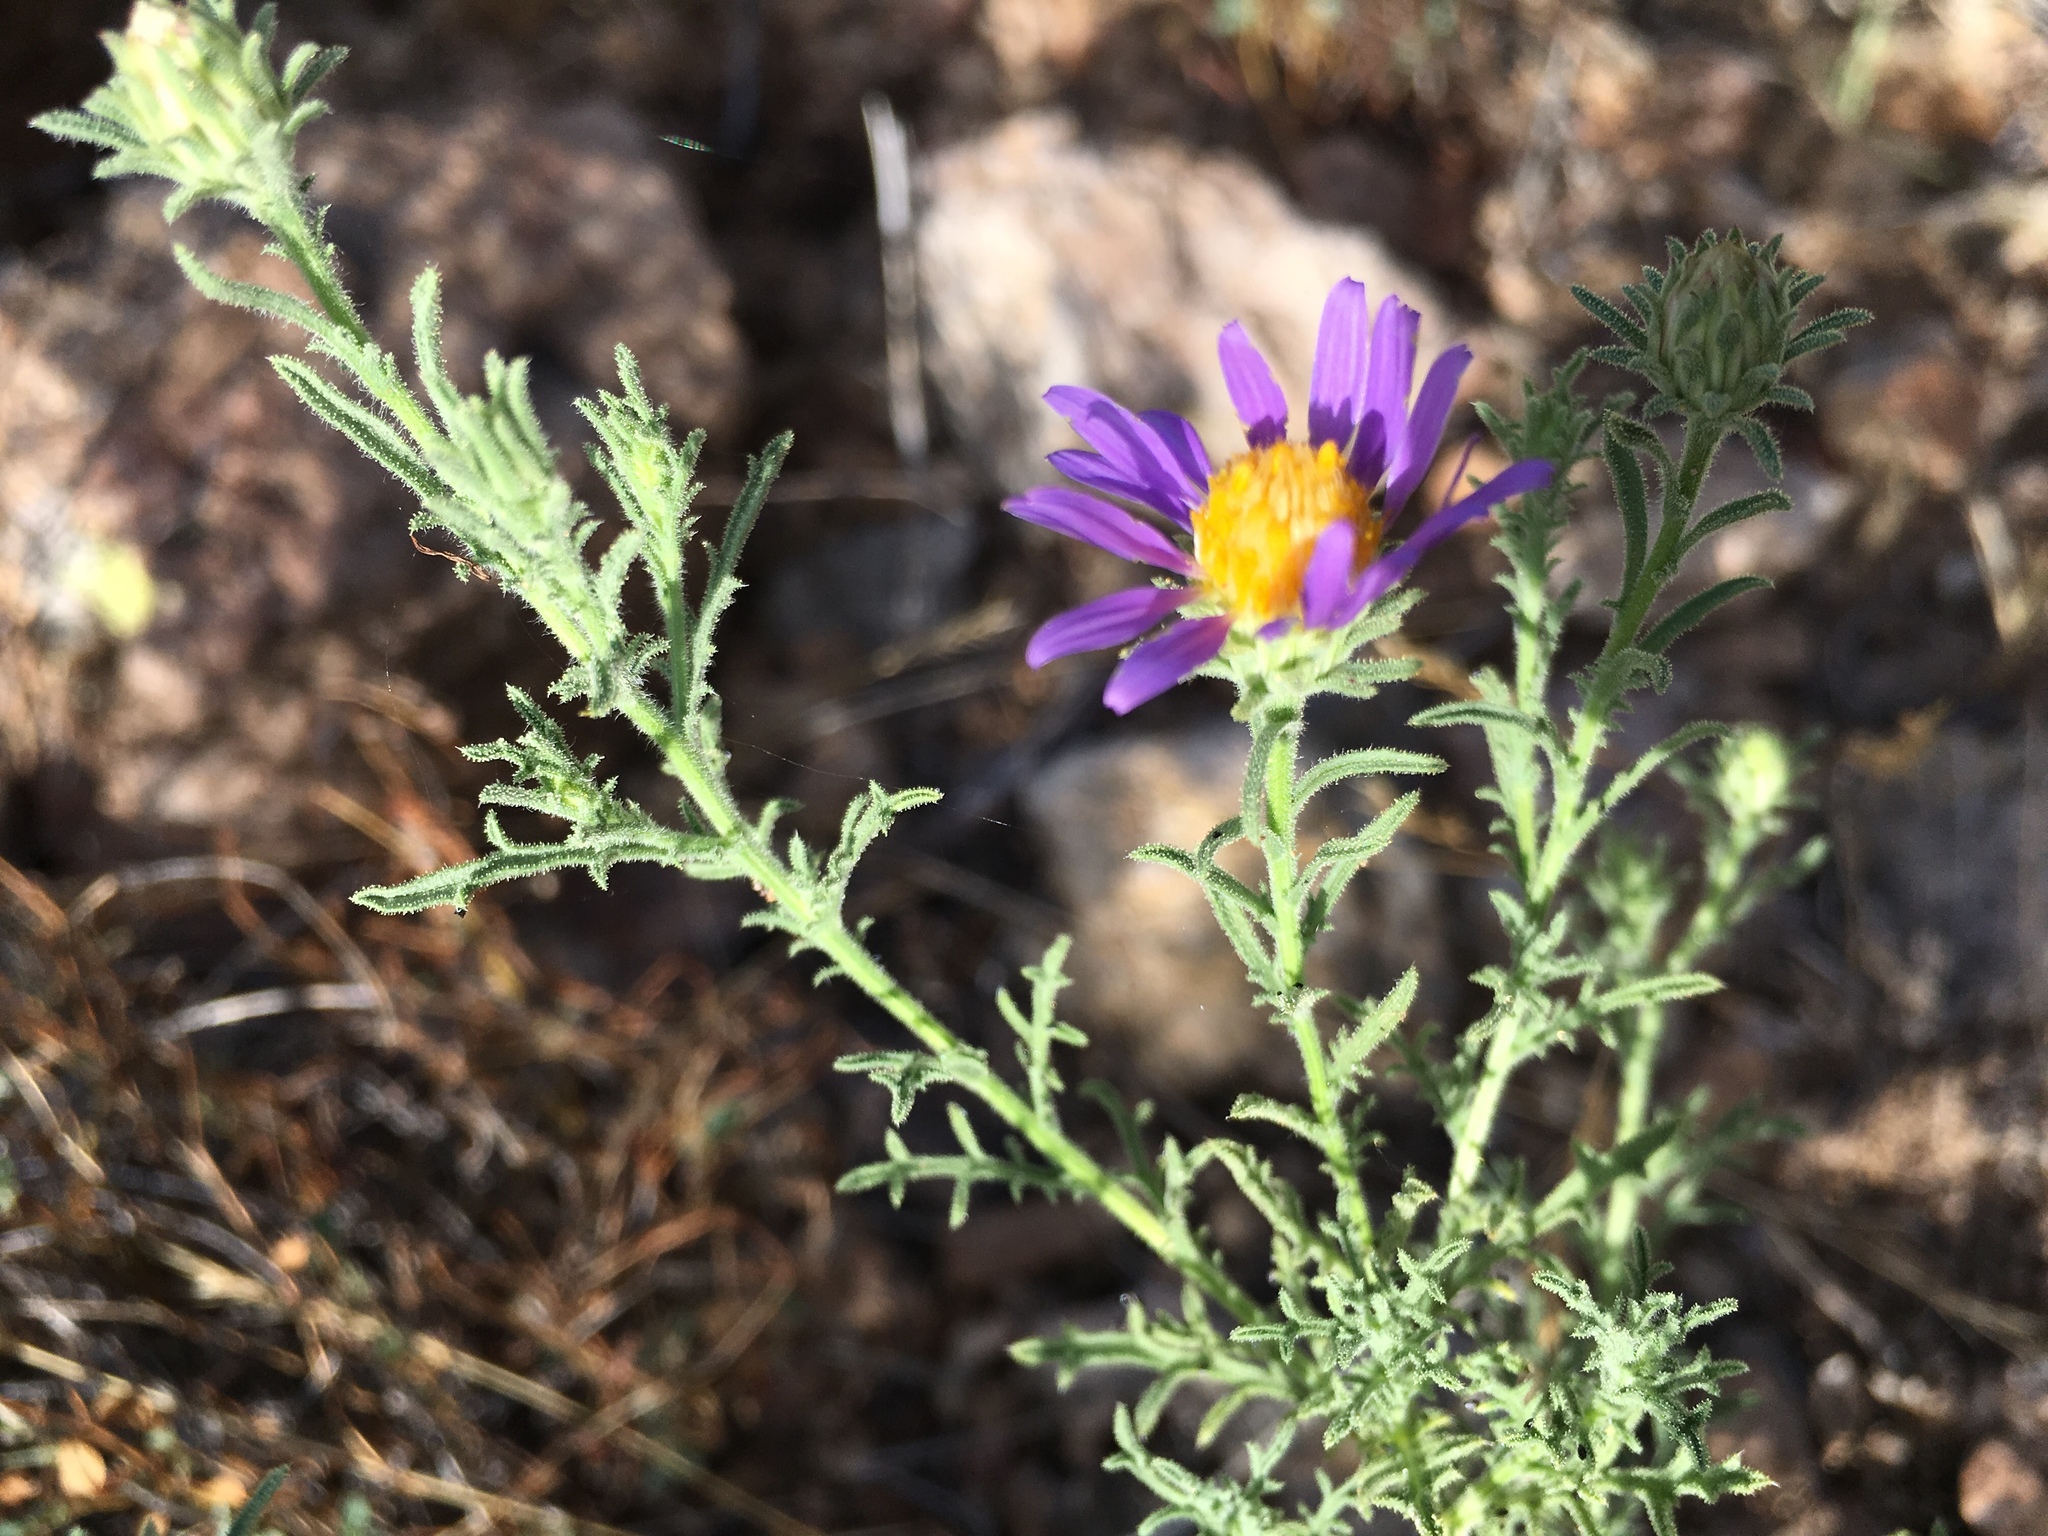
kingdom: Plantae
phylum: Tracheophyta
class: Magnoliopsida
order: Asterales
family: Asteraceae
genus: Machaeranthera
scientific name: Machaeranthera tanacetifolia
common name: Tansy-aster
